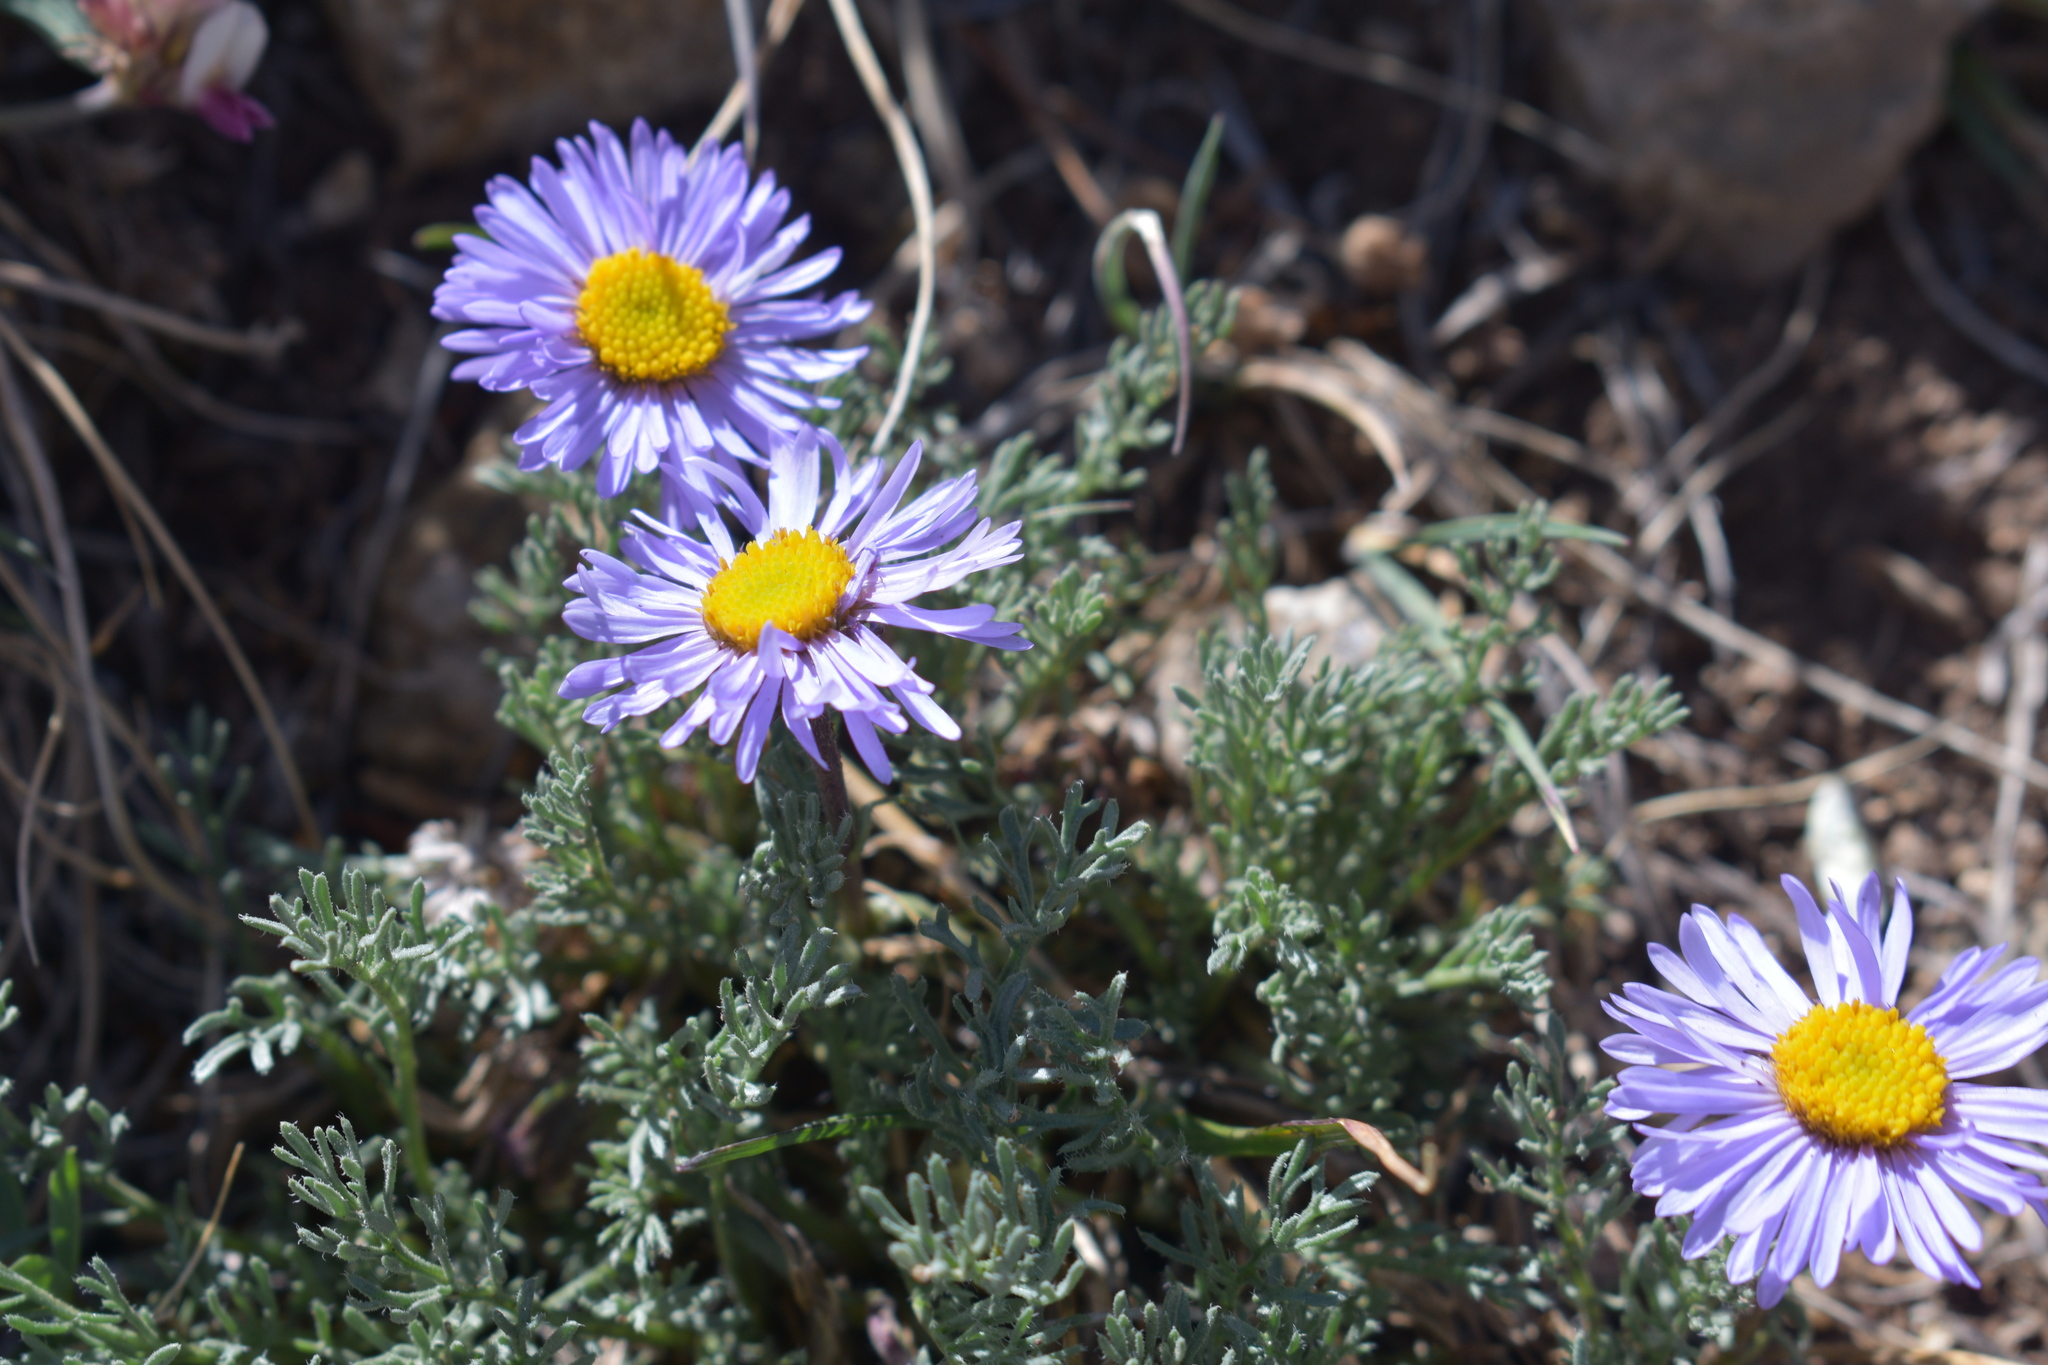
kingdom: Plantae
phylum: Tracheophyta
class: Magnoliopsida
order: Asterales
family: Asteraceae
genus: Erigeron
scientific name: Erigeron pinnatisectus
